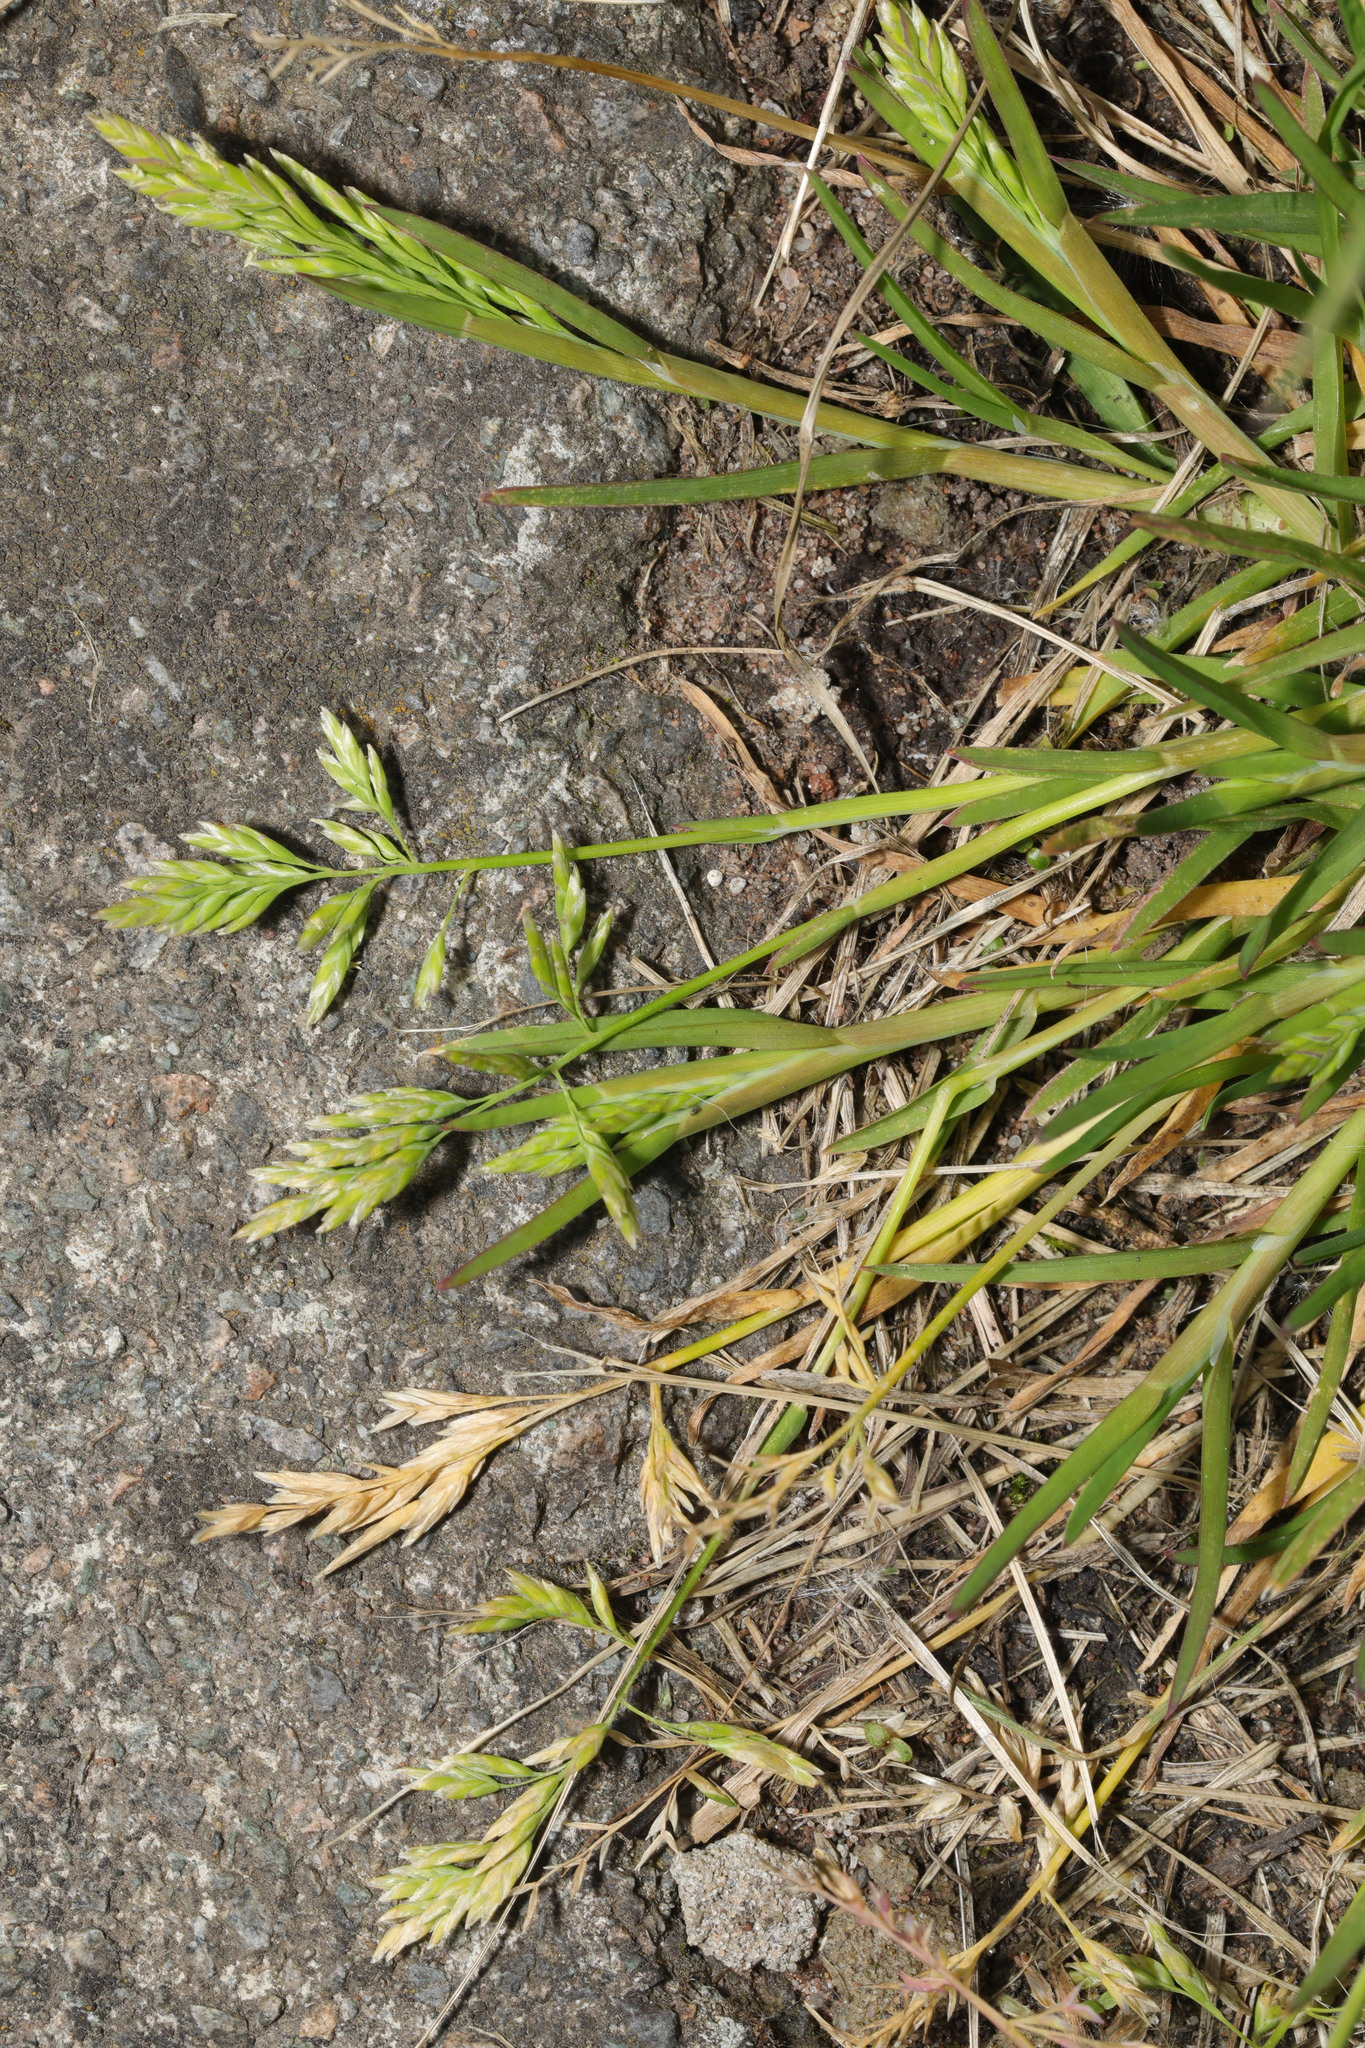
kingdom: Plantae
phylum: Tracheophyta
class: Liliopsida
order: Poales
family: Poaceae
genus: Poa
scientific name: Poa annua
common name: Annual bluegrass
